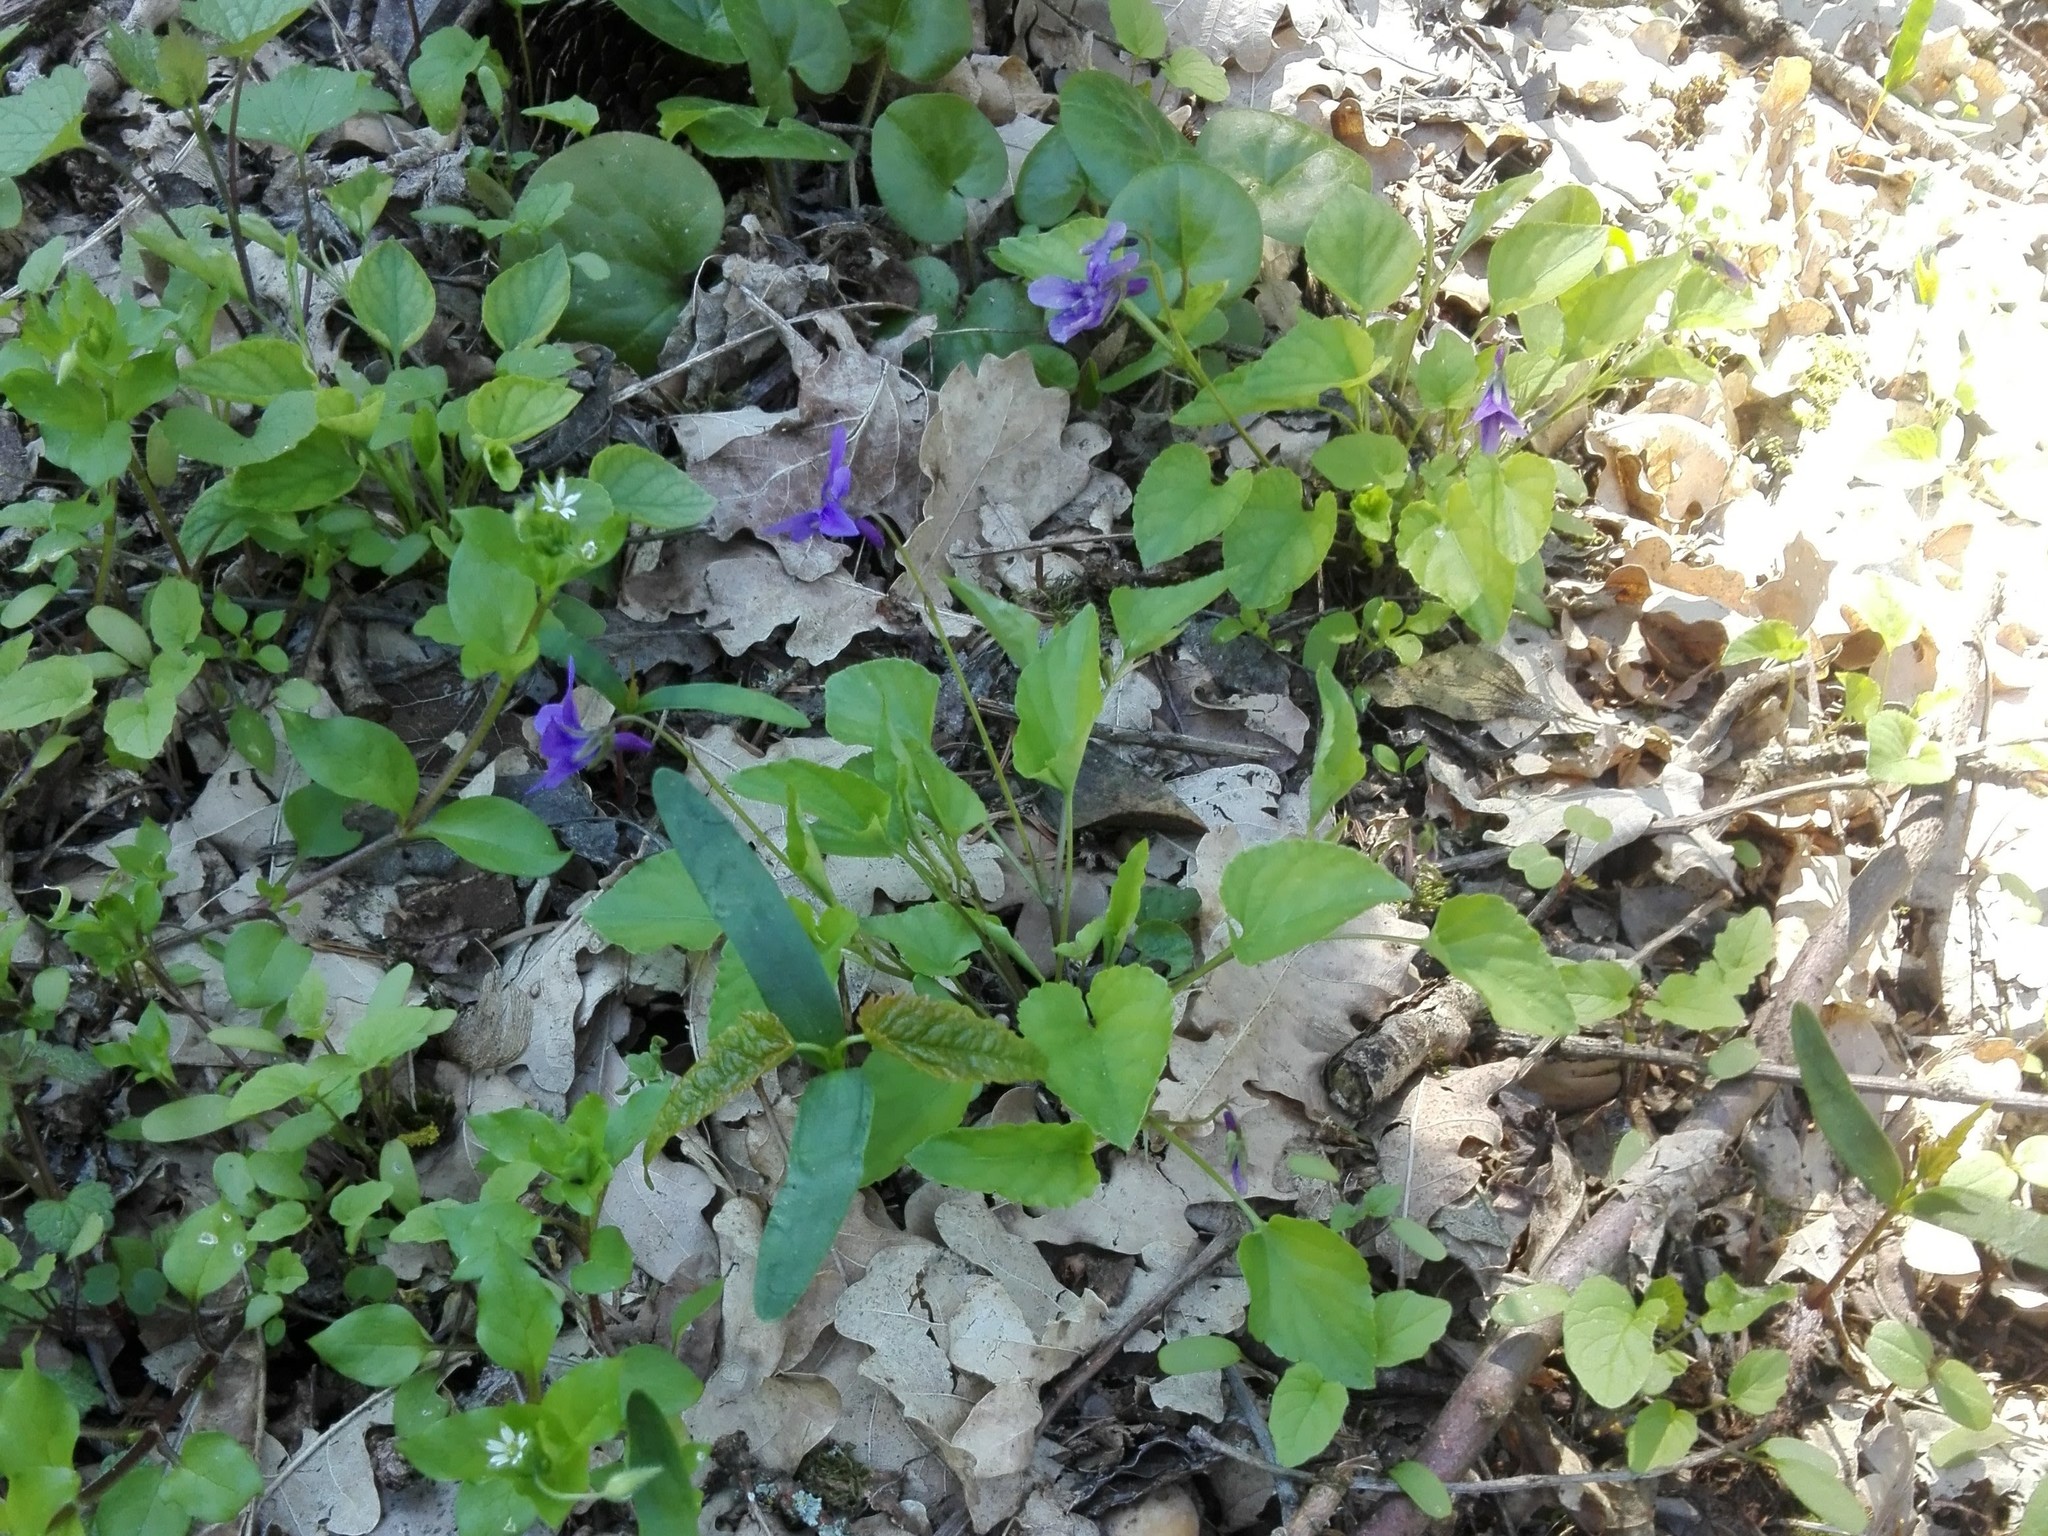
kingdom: Plantae
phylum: Tracheophyta
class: Magnoliopsida
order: Malpighiales
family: Violaceae
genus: Viola
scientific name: Viola reichenbachiana
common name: Early dog-violet
